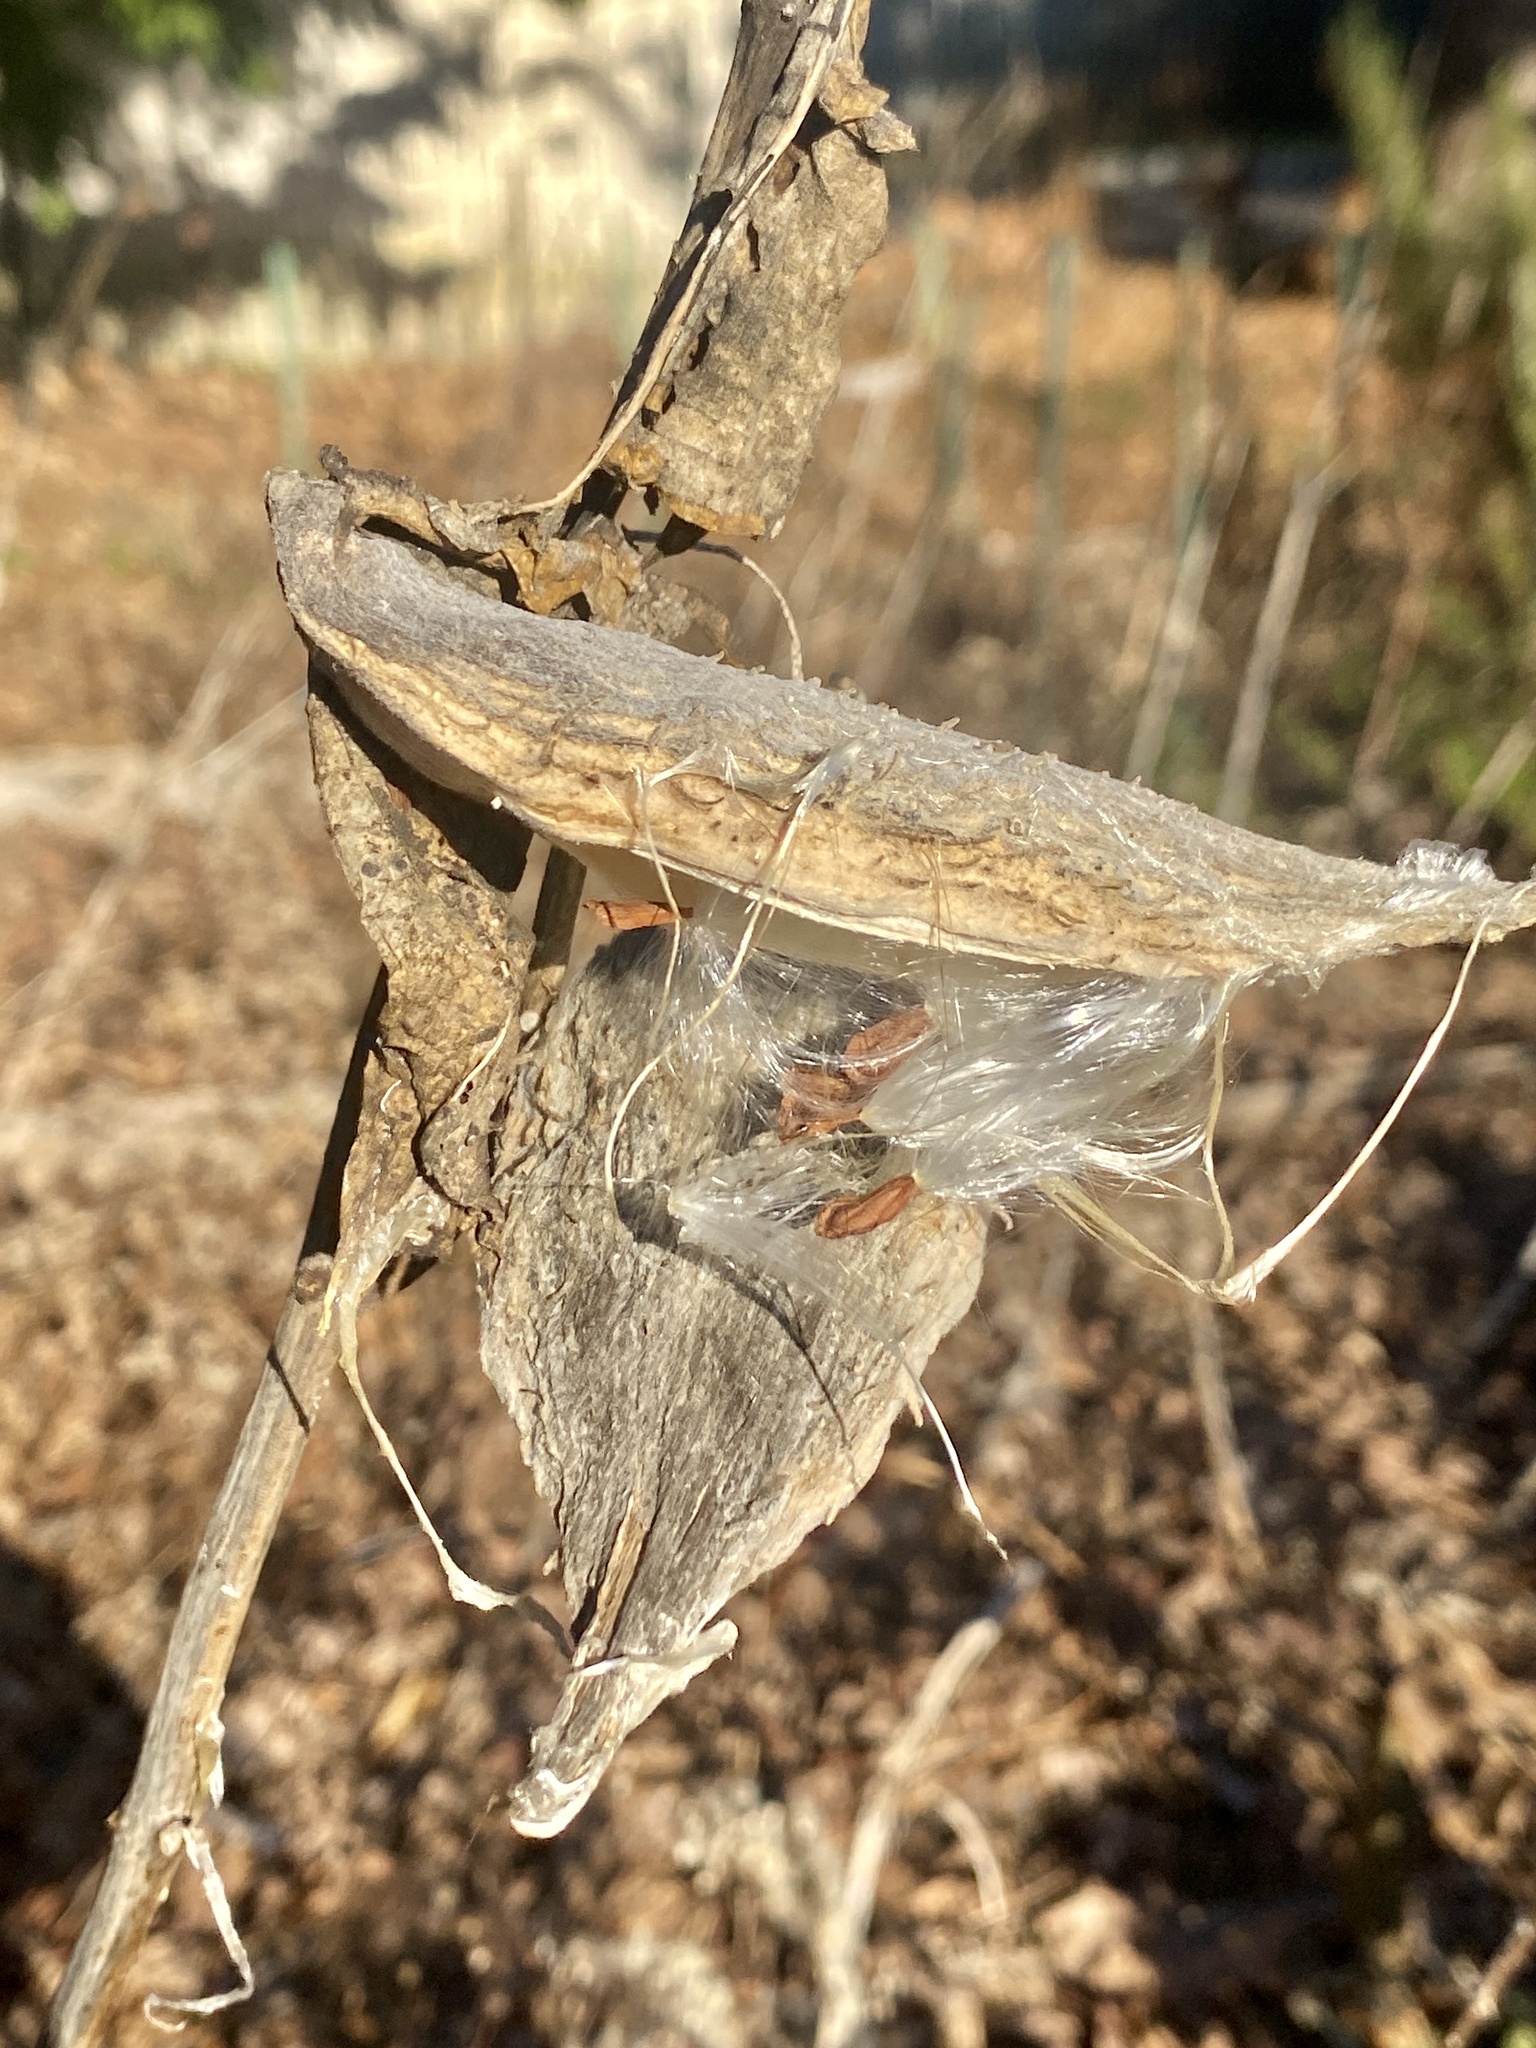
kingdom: Plantae
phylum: Tracheophyta
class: Magnoliopsida
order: Gentianales
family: Apocynaceae
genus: Asclepias
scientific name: Asclepias syriaca
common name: Common milkweed
